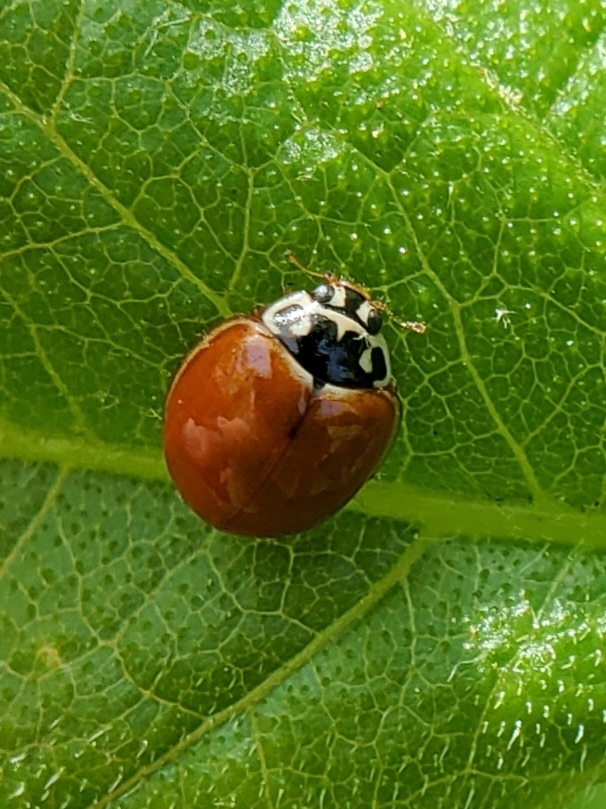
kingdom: Animalia
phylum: Arthropoda
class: Insecta
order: Coleoptera
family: Coccinellidae
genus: Cycloneda
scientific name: Cycloneda munda
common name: Polished lady beetle
